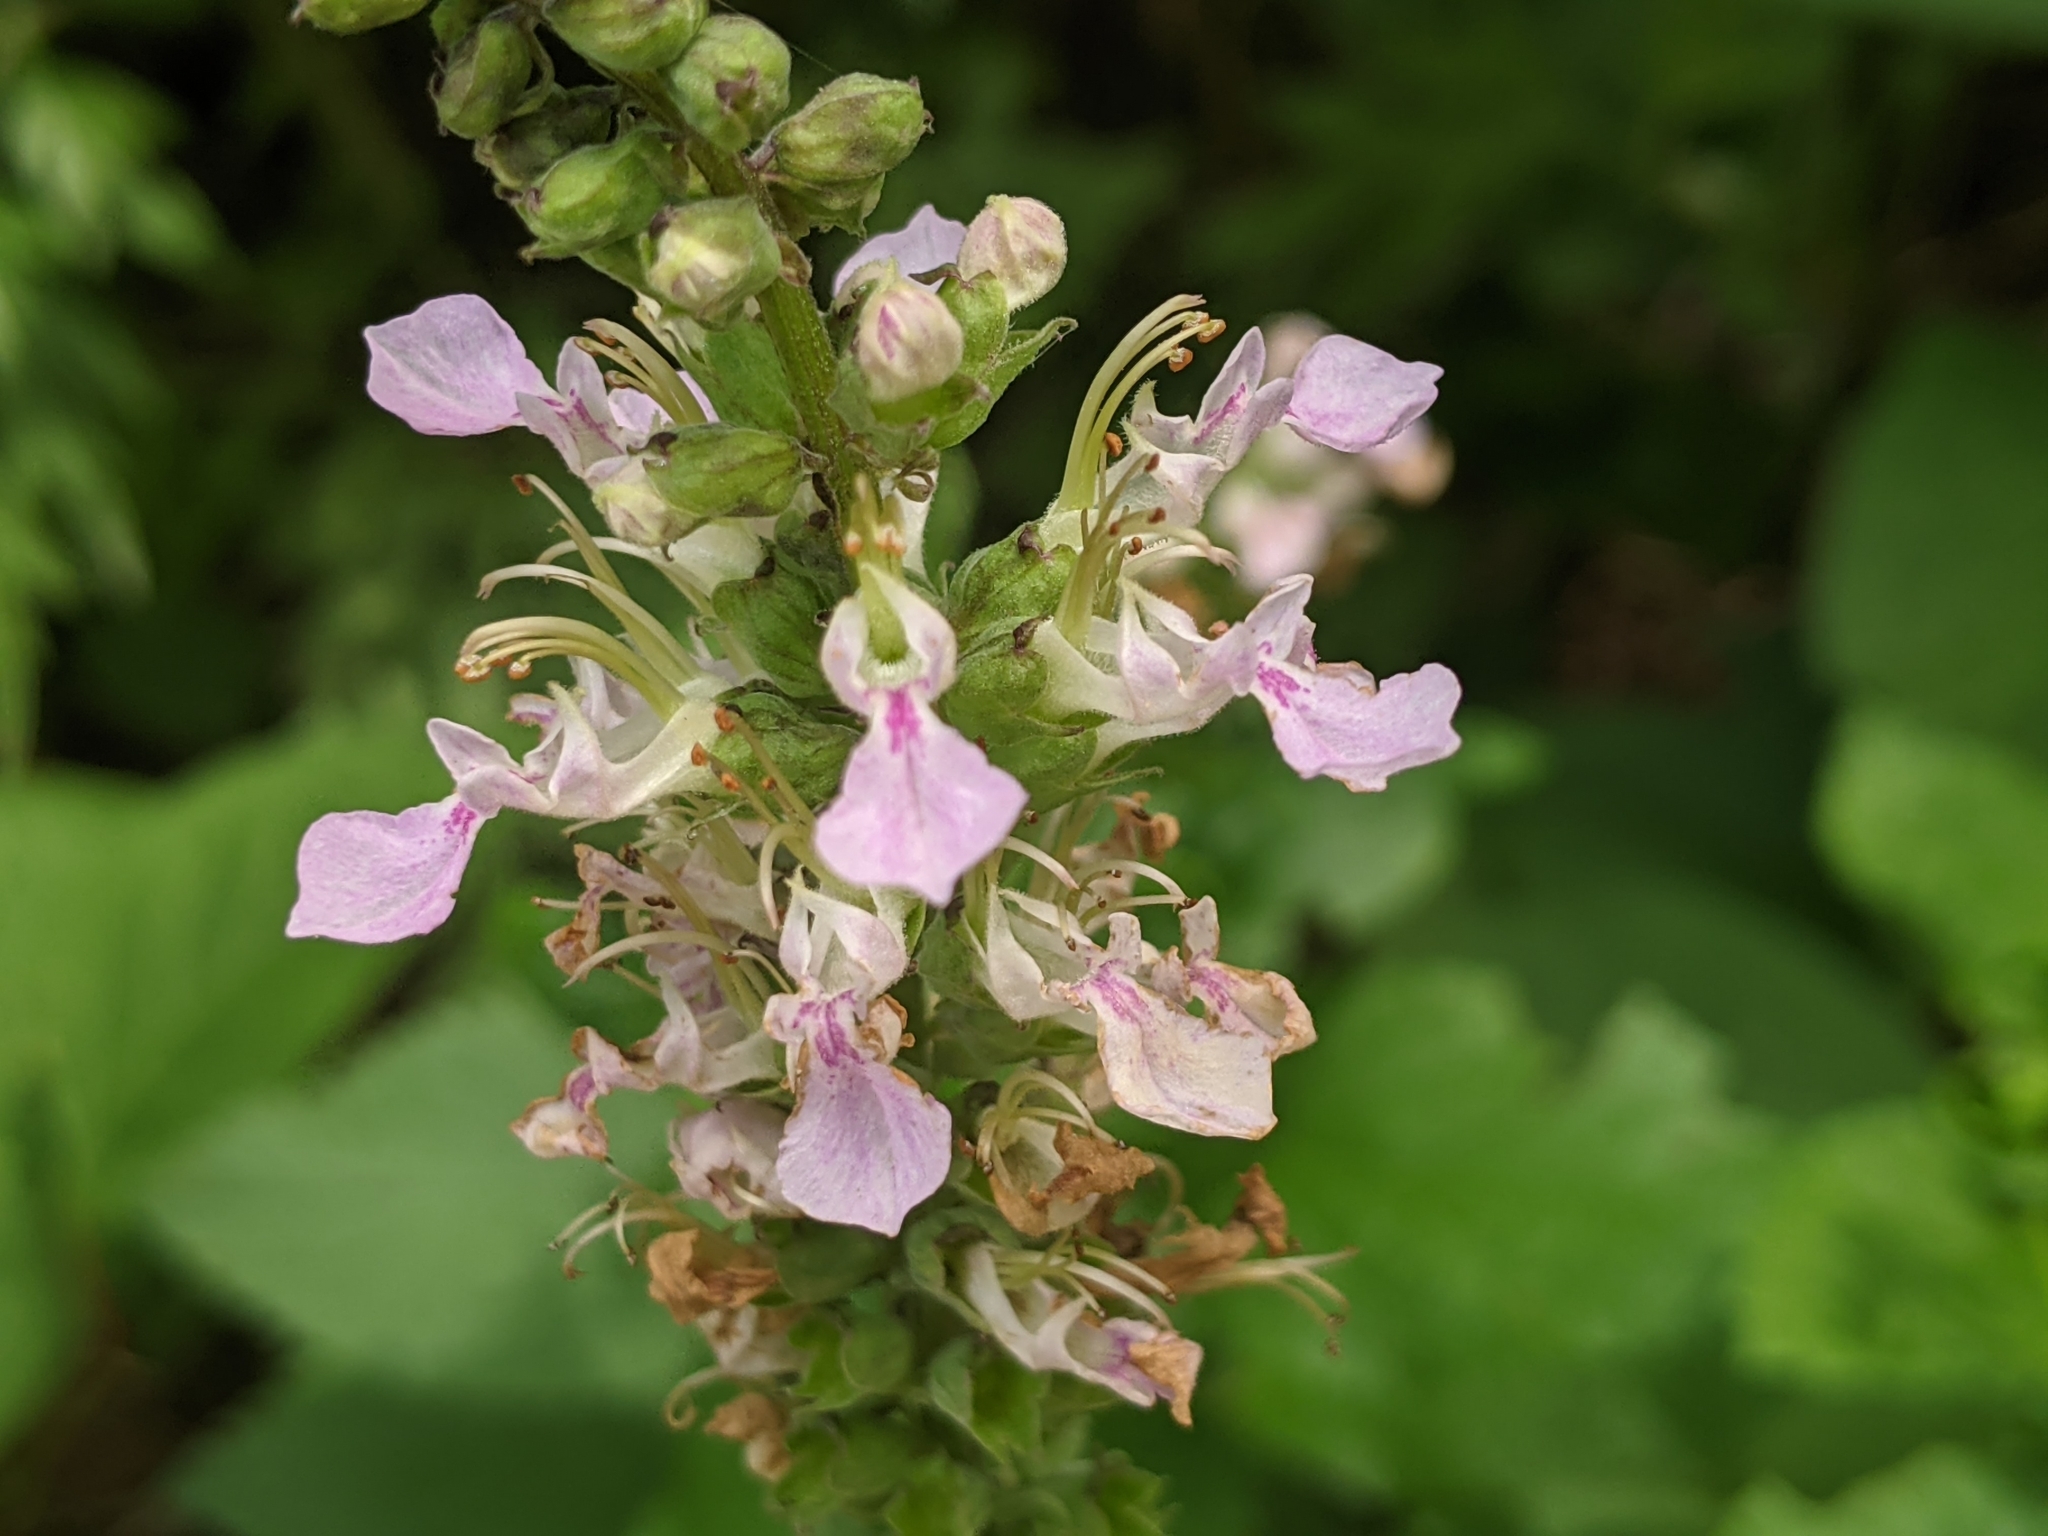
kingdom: Plantae
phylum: Tracheophyta
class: Magnoliopsida
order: Lamiales
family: Lamiaceae
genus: Teucrium
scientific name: Teucrium canadense
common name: American germander
